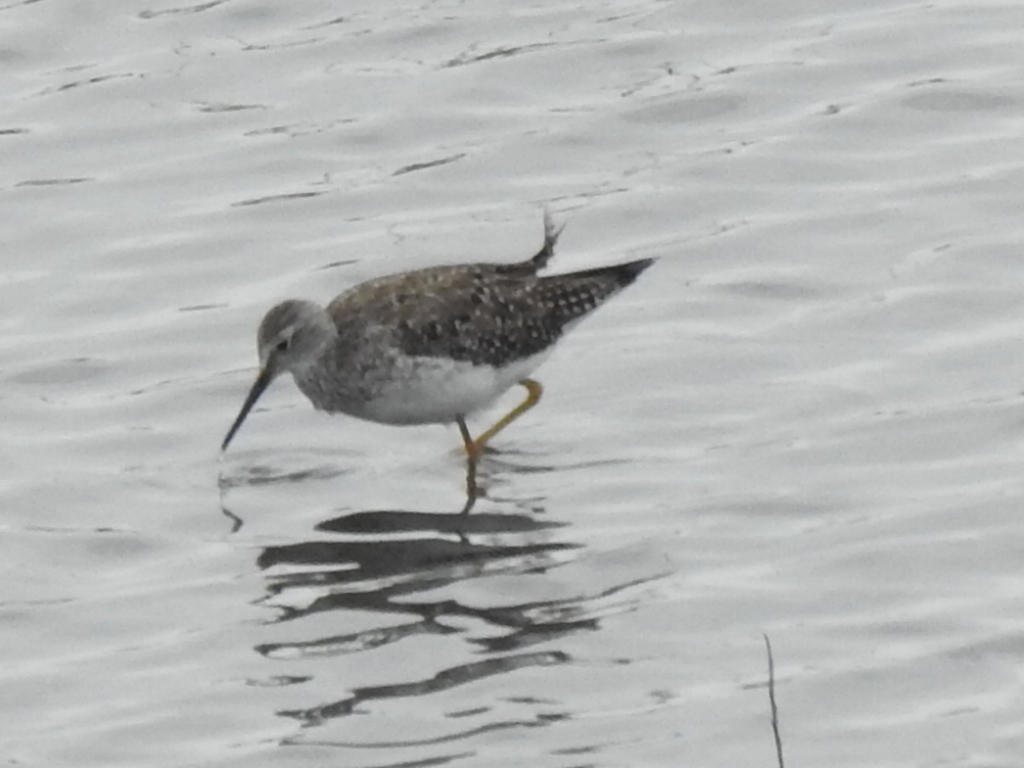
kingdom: Animalia
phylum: Chordata
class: Aves
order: Charadriiformes
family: Scolopacidae
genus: Tringa
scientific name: Tringa melanoleuca
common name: Greater yellowlegs
